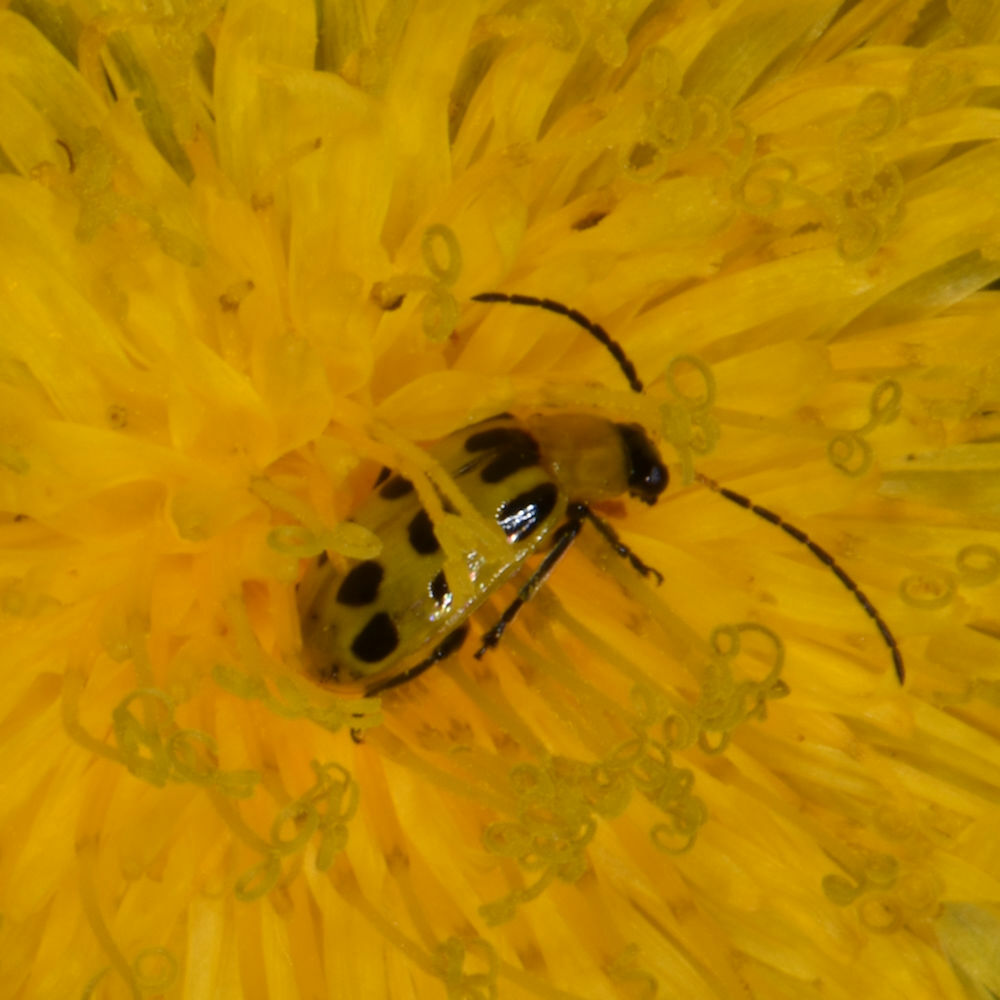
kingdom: Animalia
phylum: Arthropoda
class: Insecta
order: Coleoptera
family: Chrysomelidae
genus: Diabrotica
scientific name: Diabrotica undecimpunctata
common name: Spotted cucumber beetle
